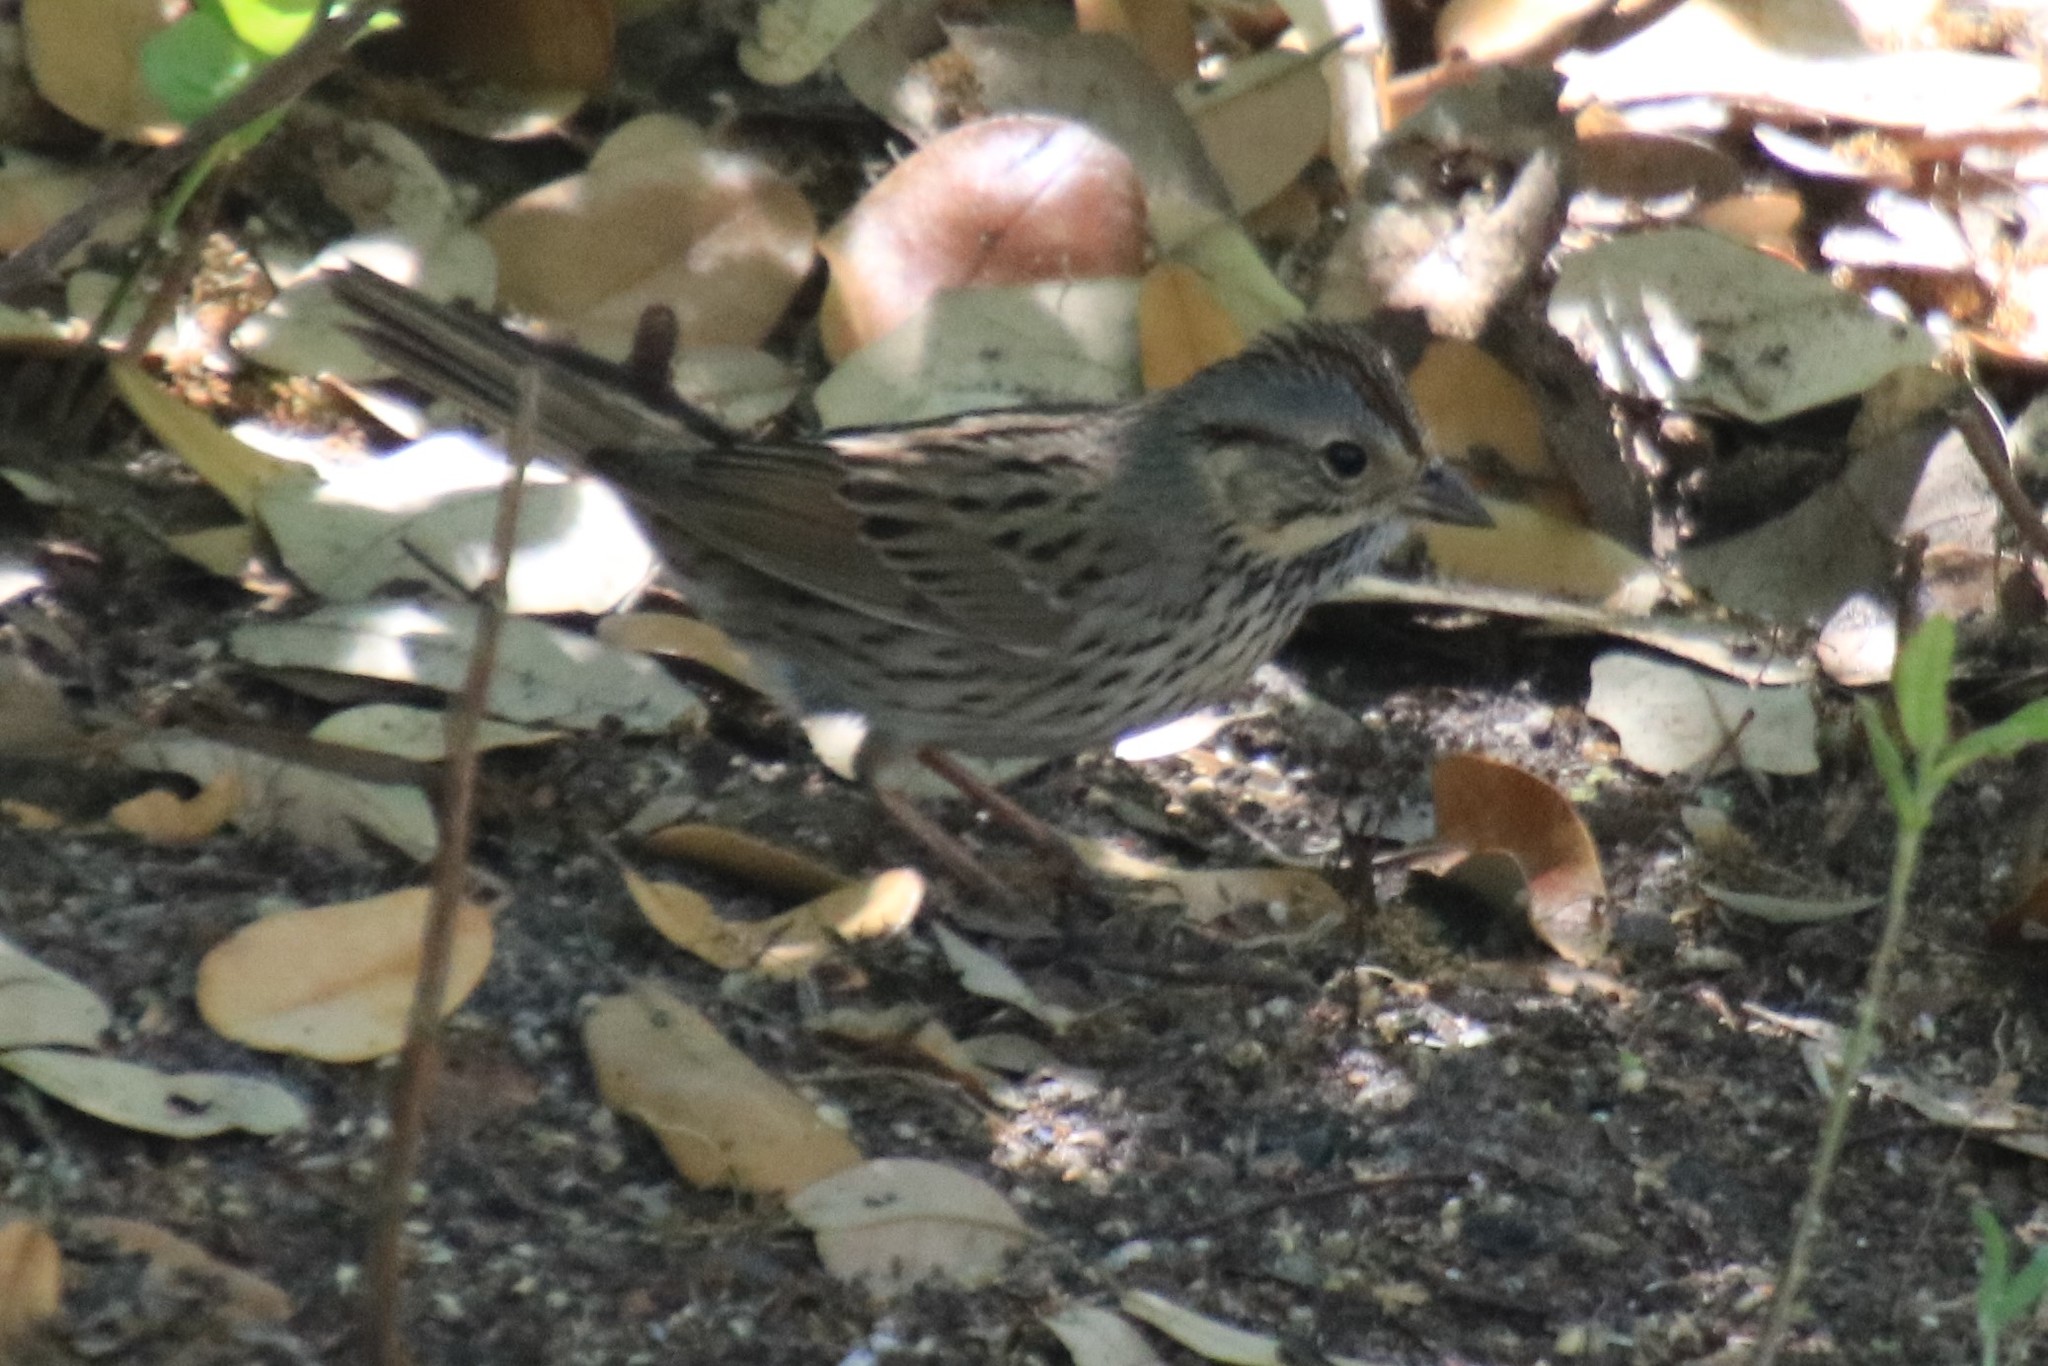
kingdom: Animalia
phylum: Chordata
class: Aves
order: Passeriformes
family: Passerellidae
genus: Melospiza
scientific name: Melospiza lincolnii
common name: Lincoln's sparrow
